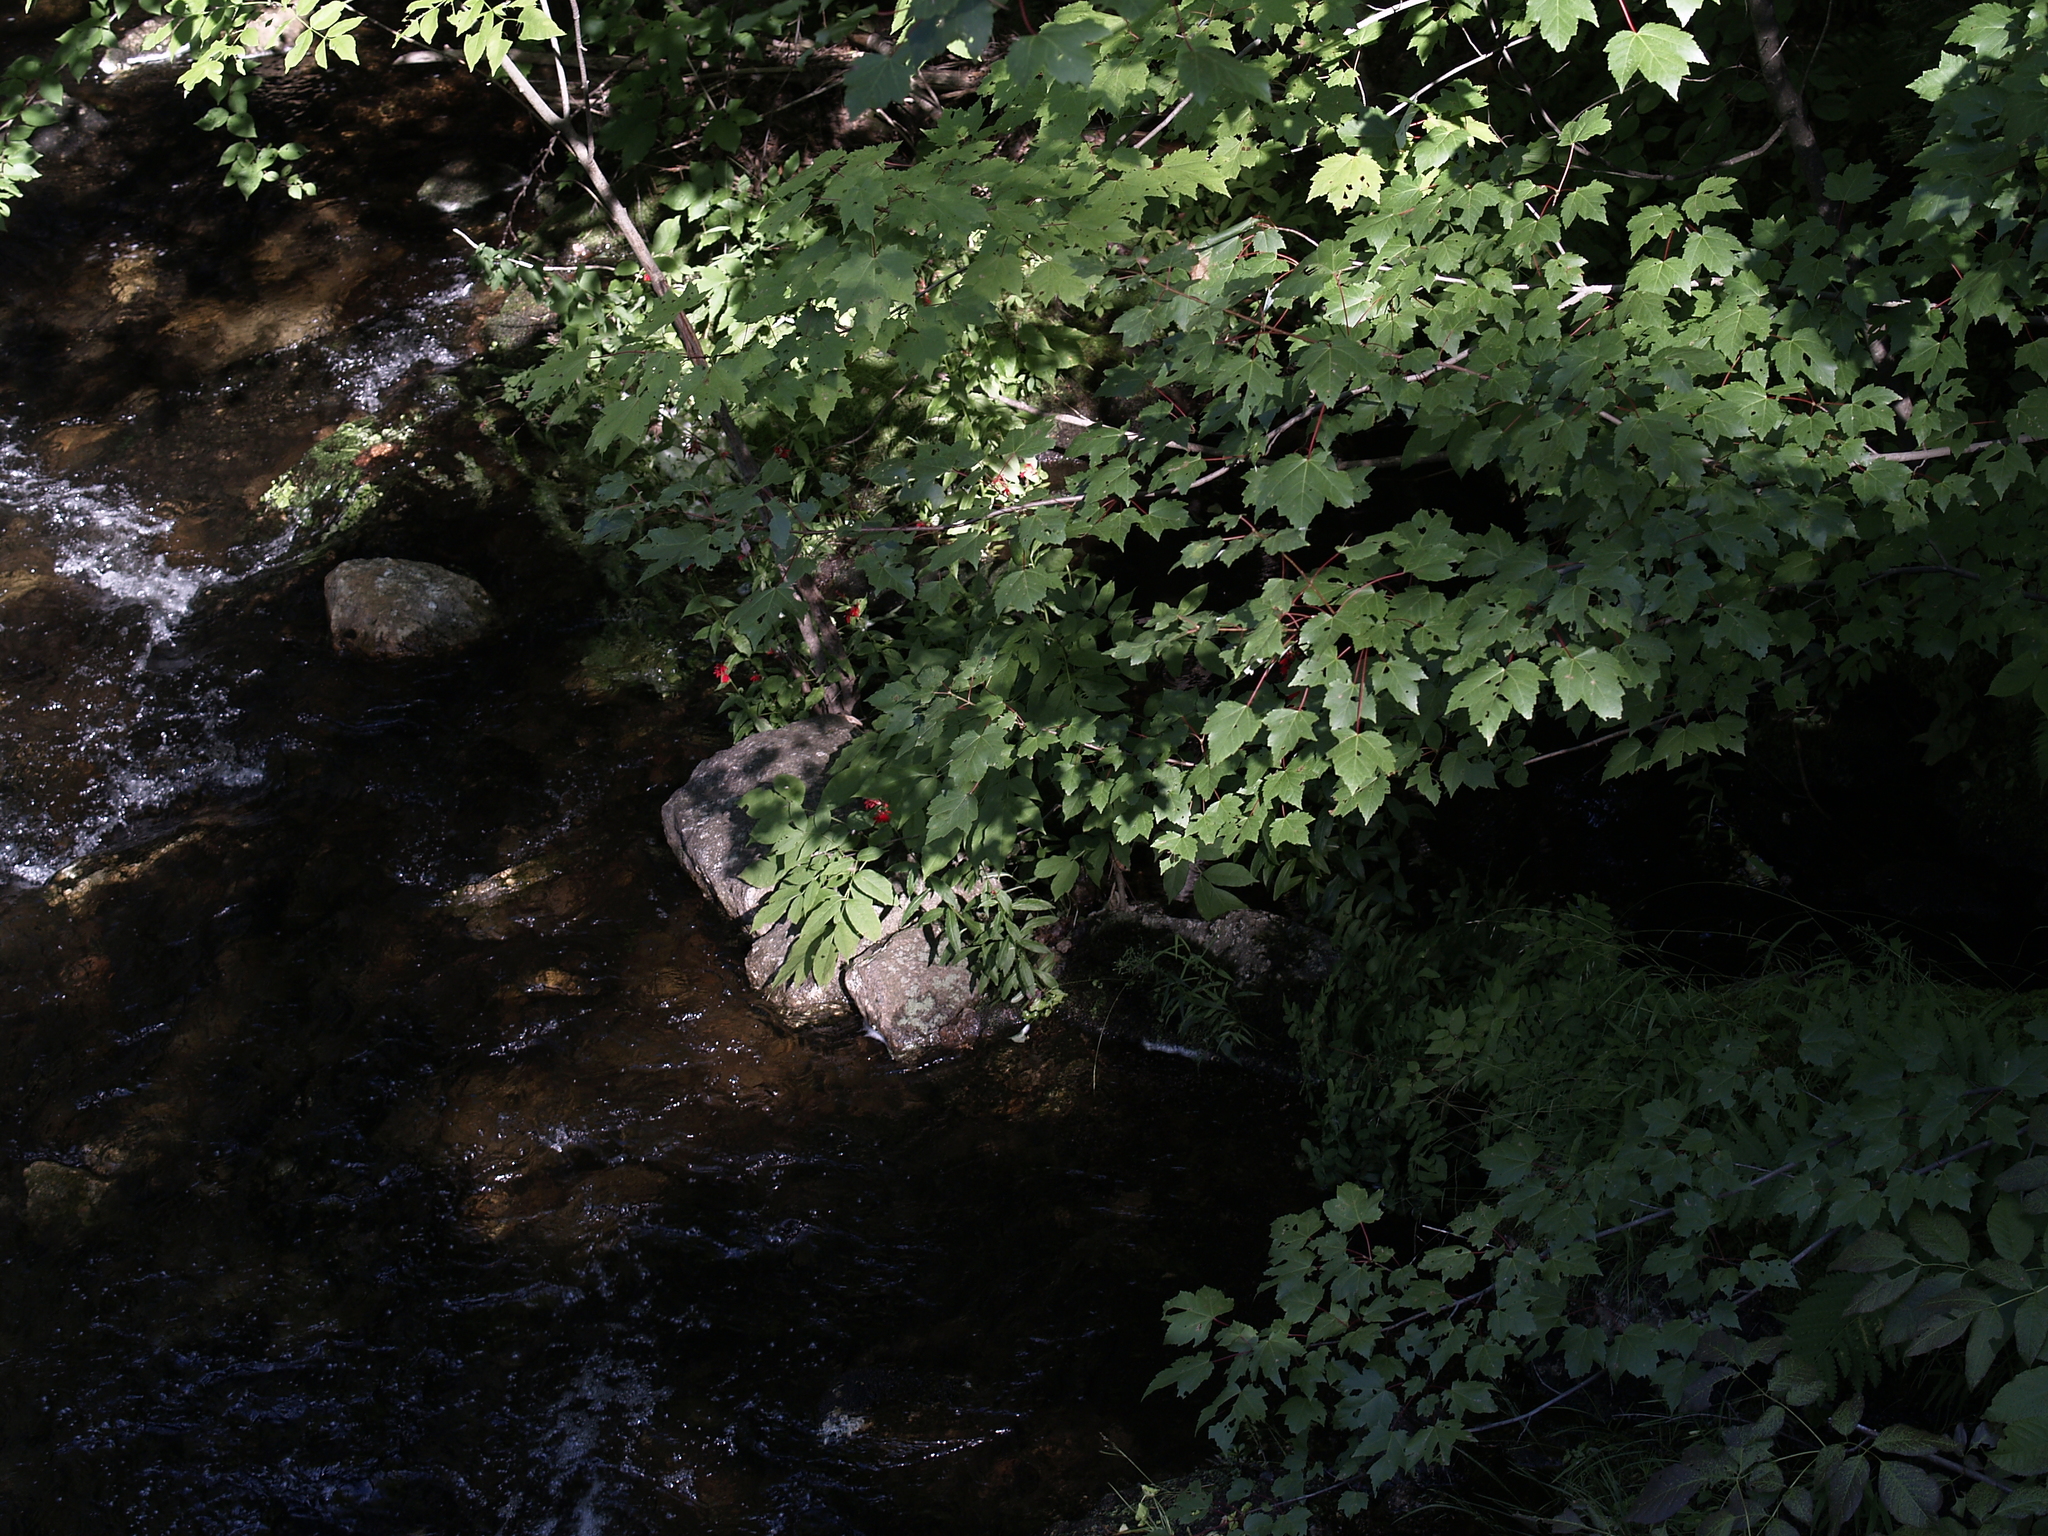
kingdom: Plantae
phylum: Tracheophyta
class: Magnoliopsida
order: Sapindales
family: Sapindaceae
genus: Acer
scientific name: Acer rubrum
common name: Red maple
